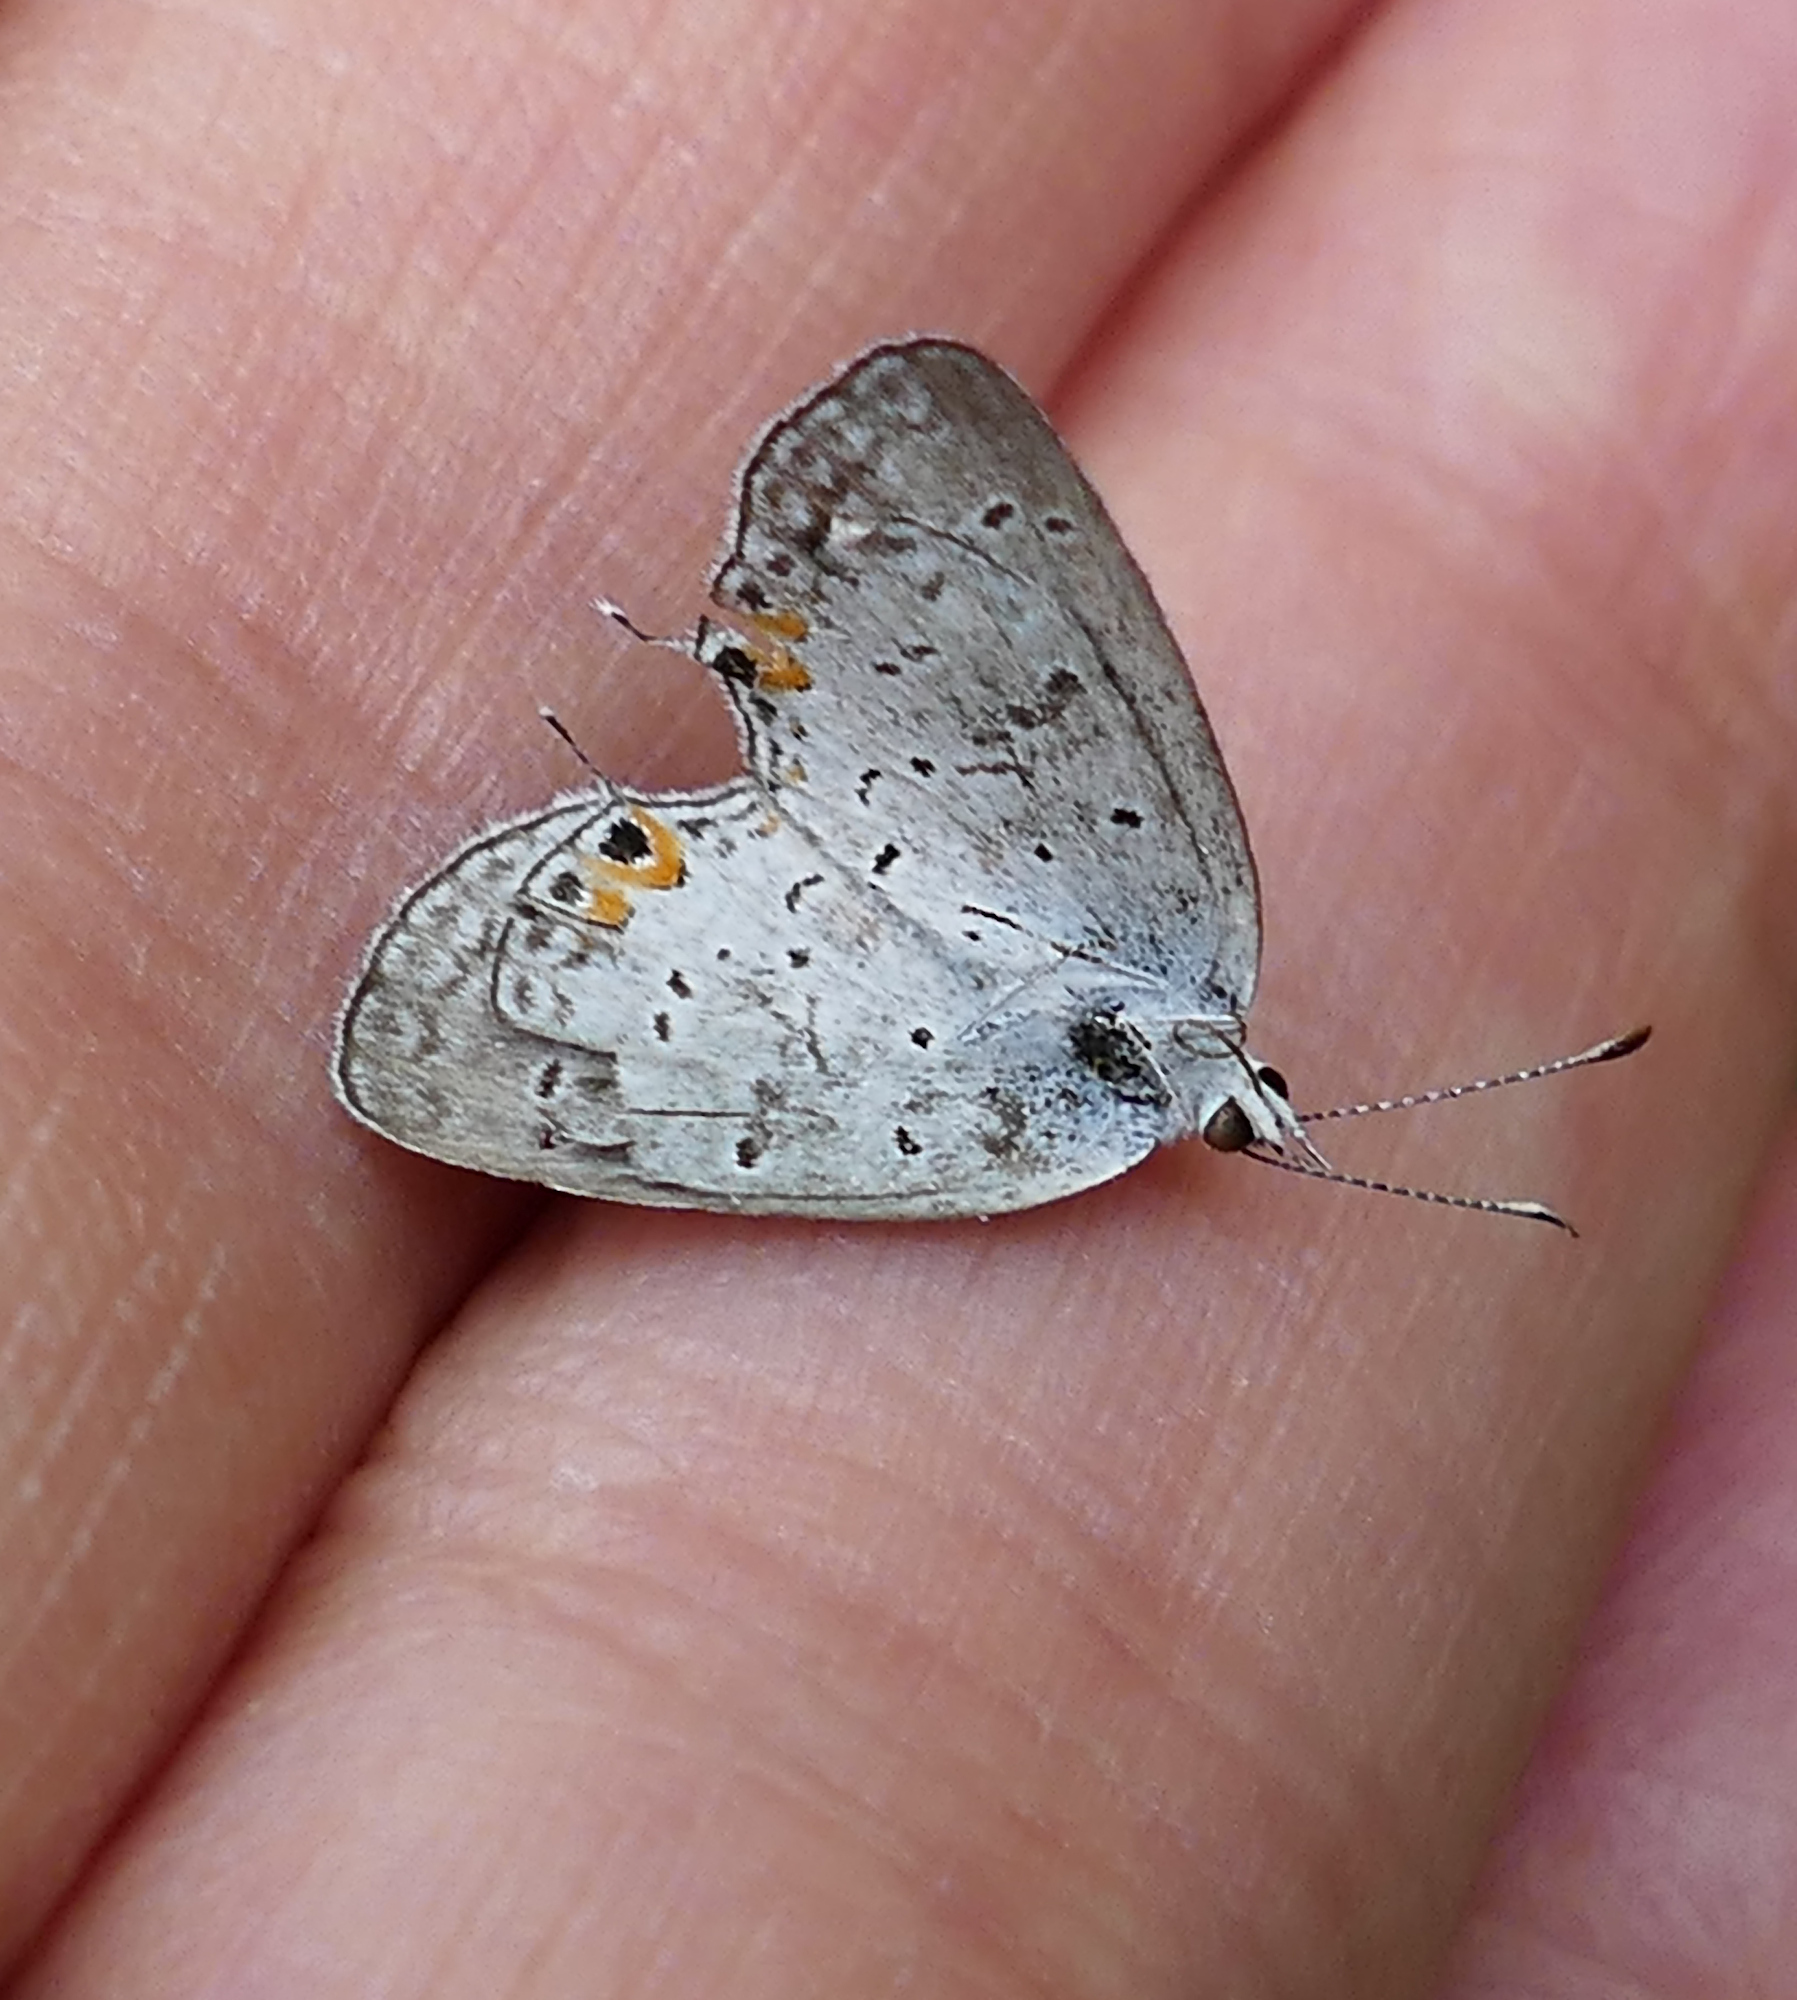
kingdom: Animalia
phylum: Arthropoda
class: Insecta
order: Lepidoptera
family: Lycaenidae
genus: Elkalyce
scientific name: Elkalyce comyntas
